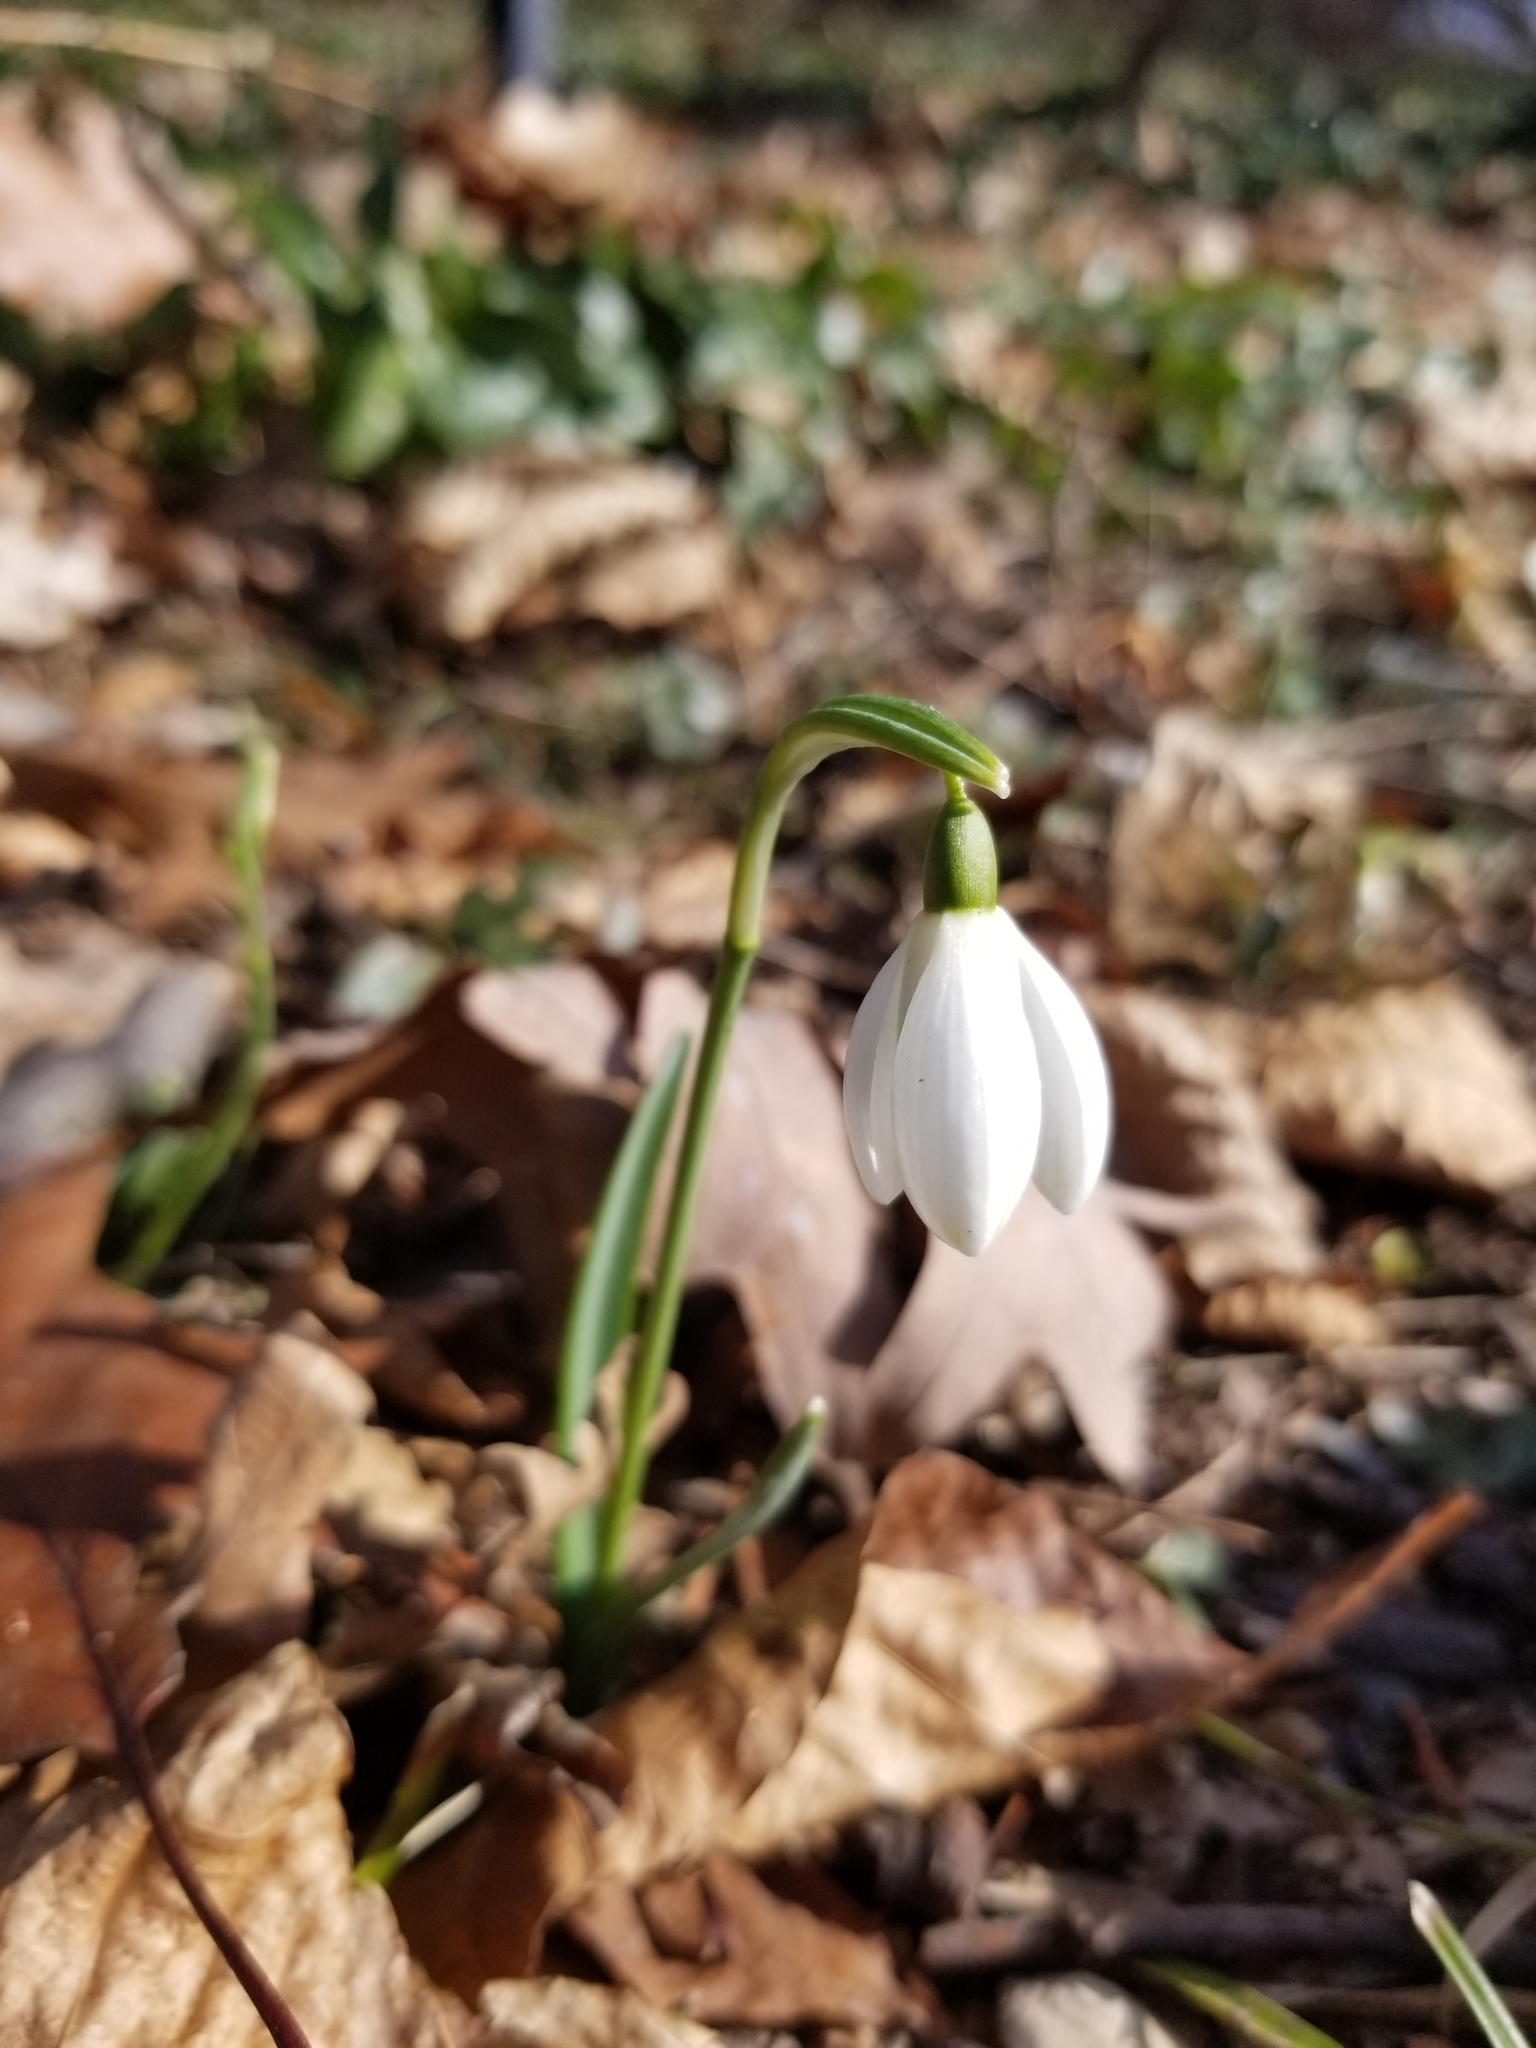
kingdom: Plantae
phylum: Tracheophyta
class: Liliopsida
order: Asparagales
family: Amaryllidaceae
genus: Galanthus
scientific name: Galanthus nivalis
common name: Snowdrop
